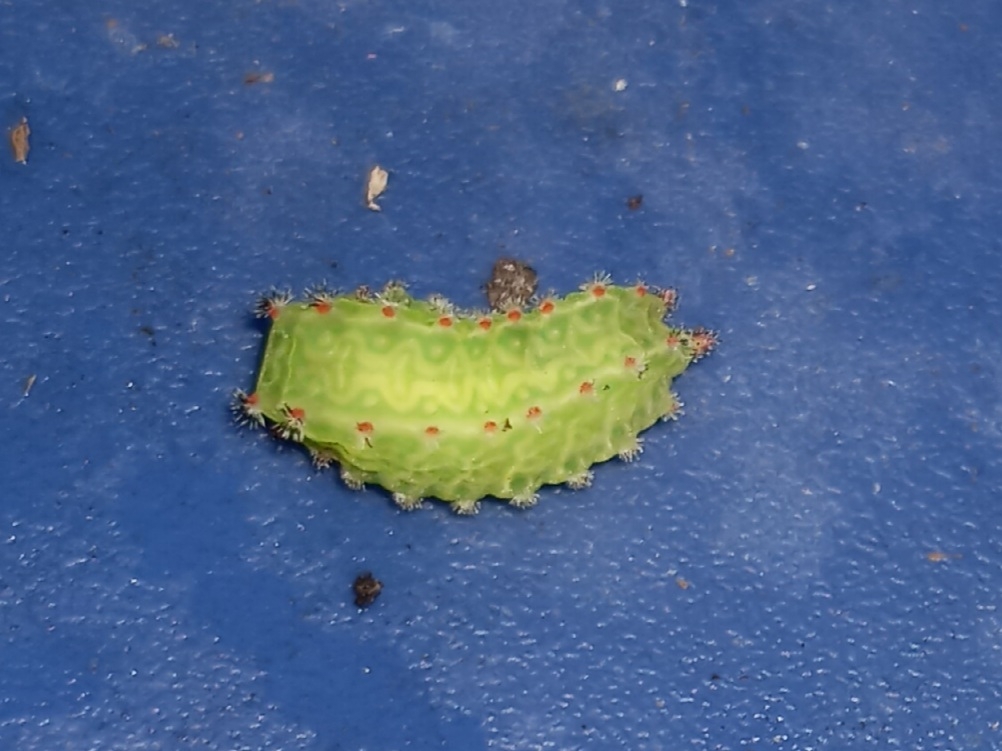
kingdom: Animalia
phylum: Arthropoda
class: Insecta
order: Lepidoptera
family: Limacodidae
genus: Natada
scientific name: Natada nasoni
